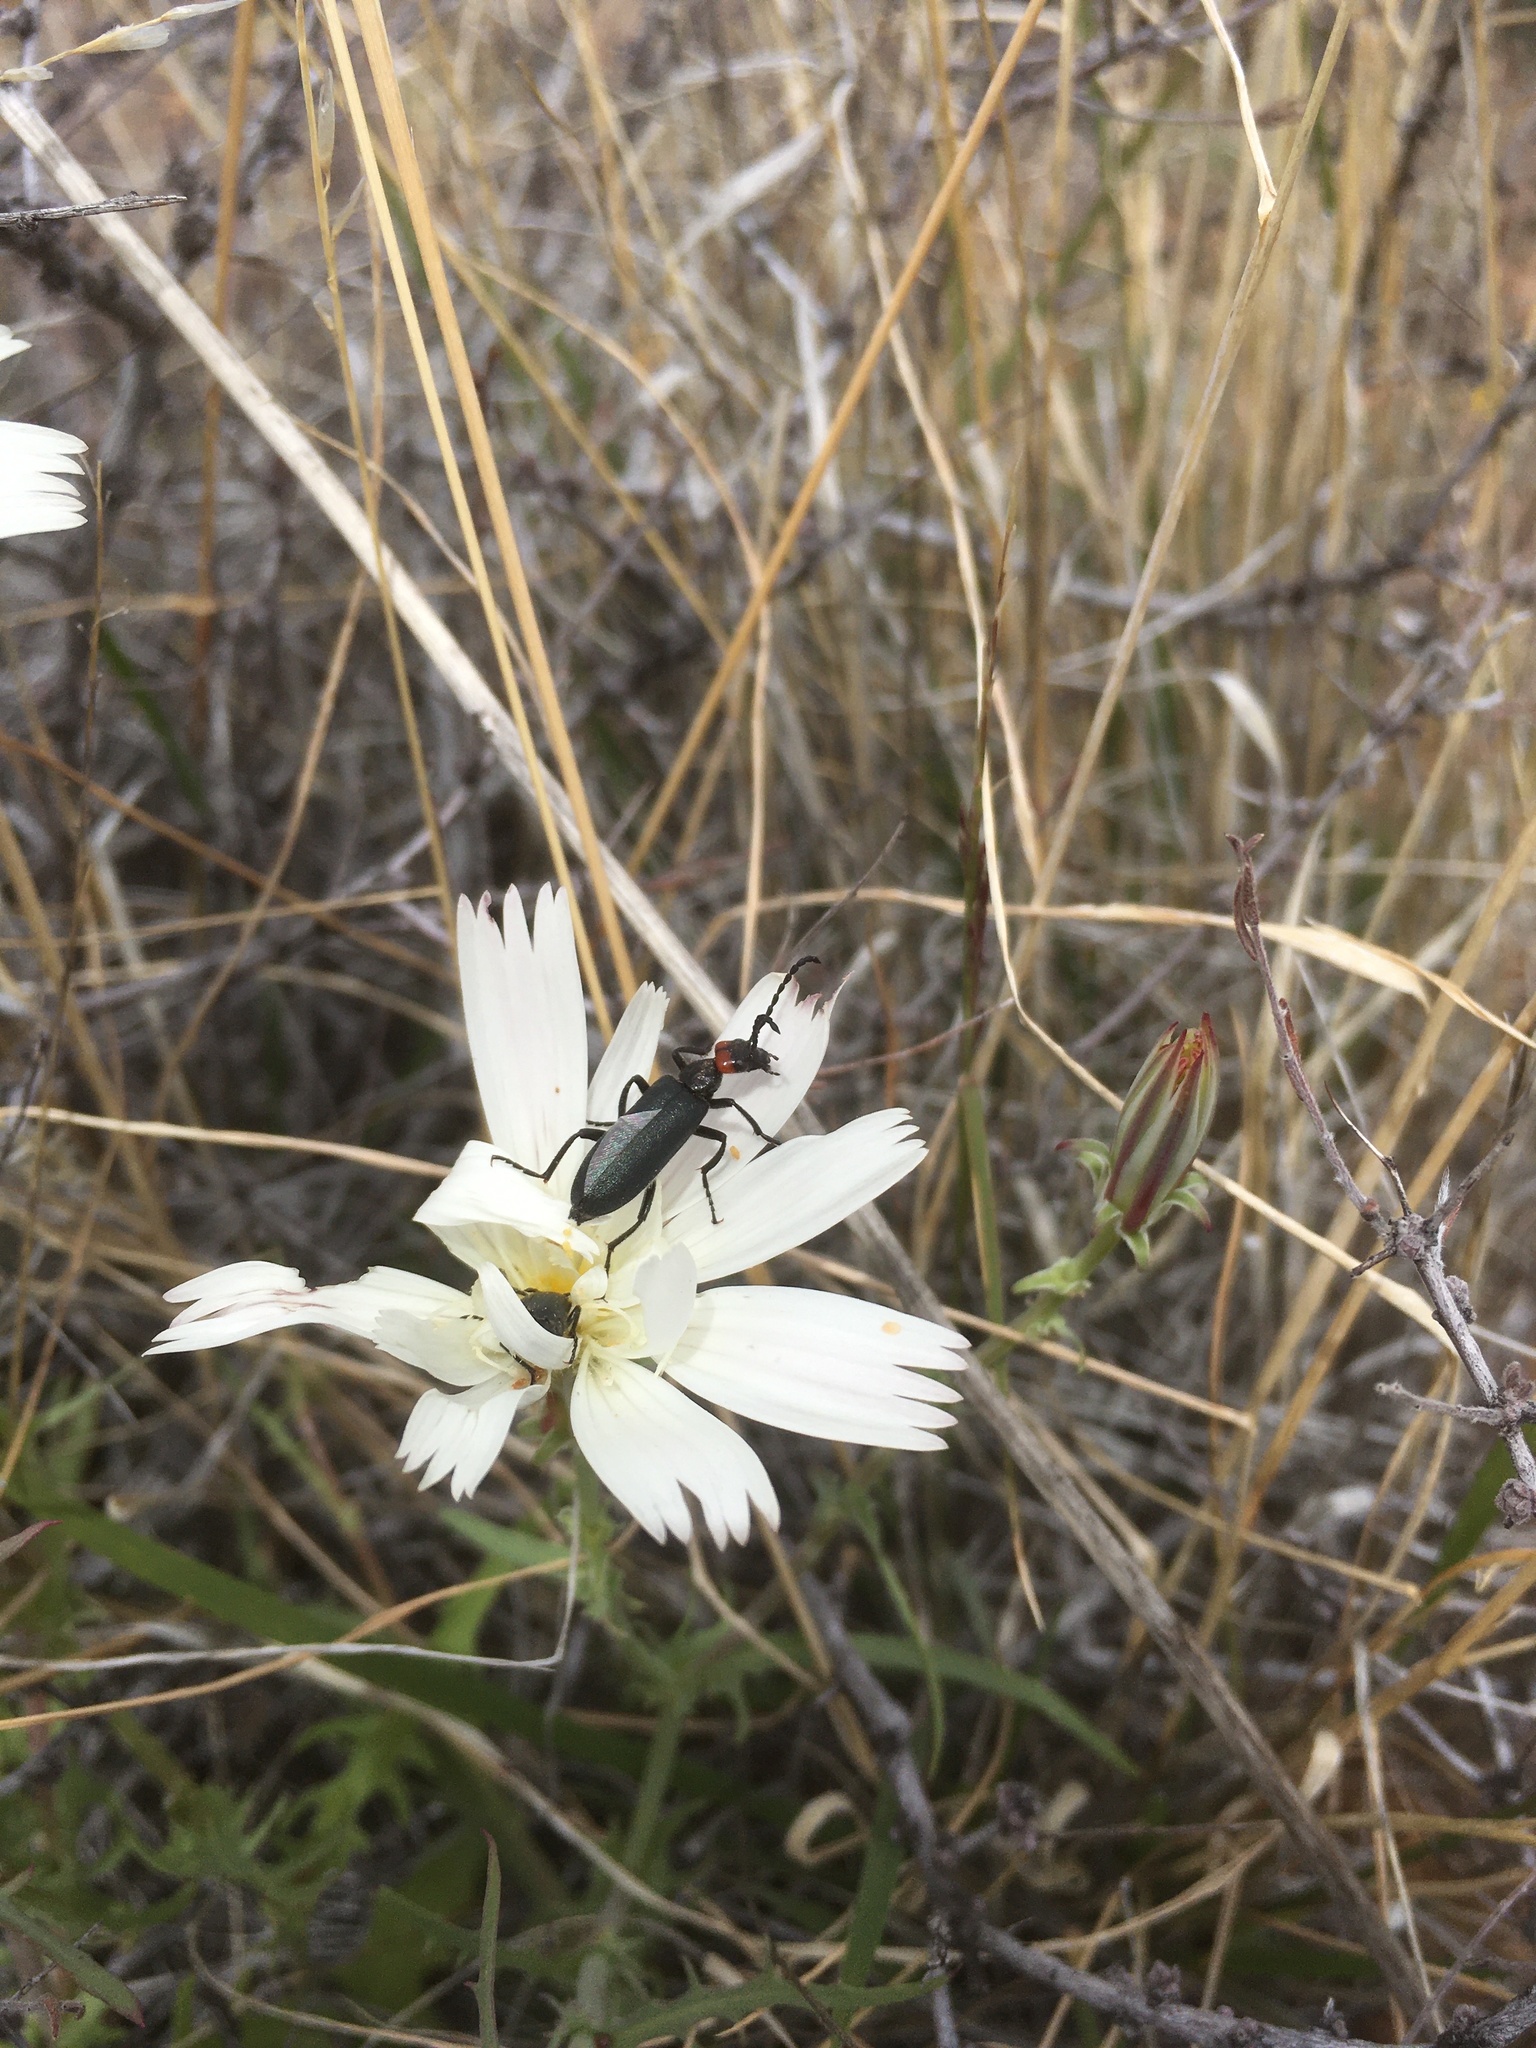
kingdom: Animalia
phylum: Arthropoda
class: Insecta
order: Coleoptera
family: Meloidae
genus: Lytta
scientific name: Lytta auriculata
